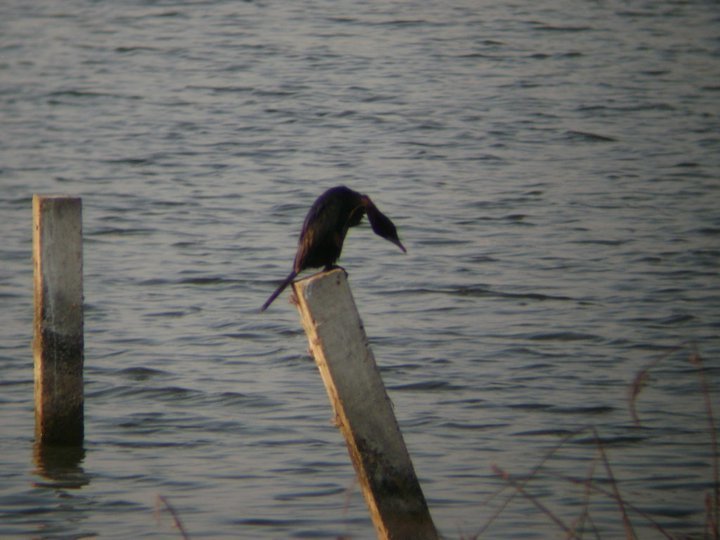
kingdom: Animalia
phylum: Chordata
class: Aves
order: Suliformes
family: Phalacrocoracidae
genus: Microcarbo
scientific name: Microcarbo niger
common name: Little cormorant
